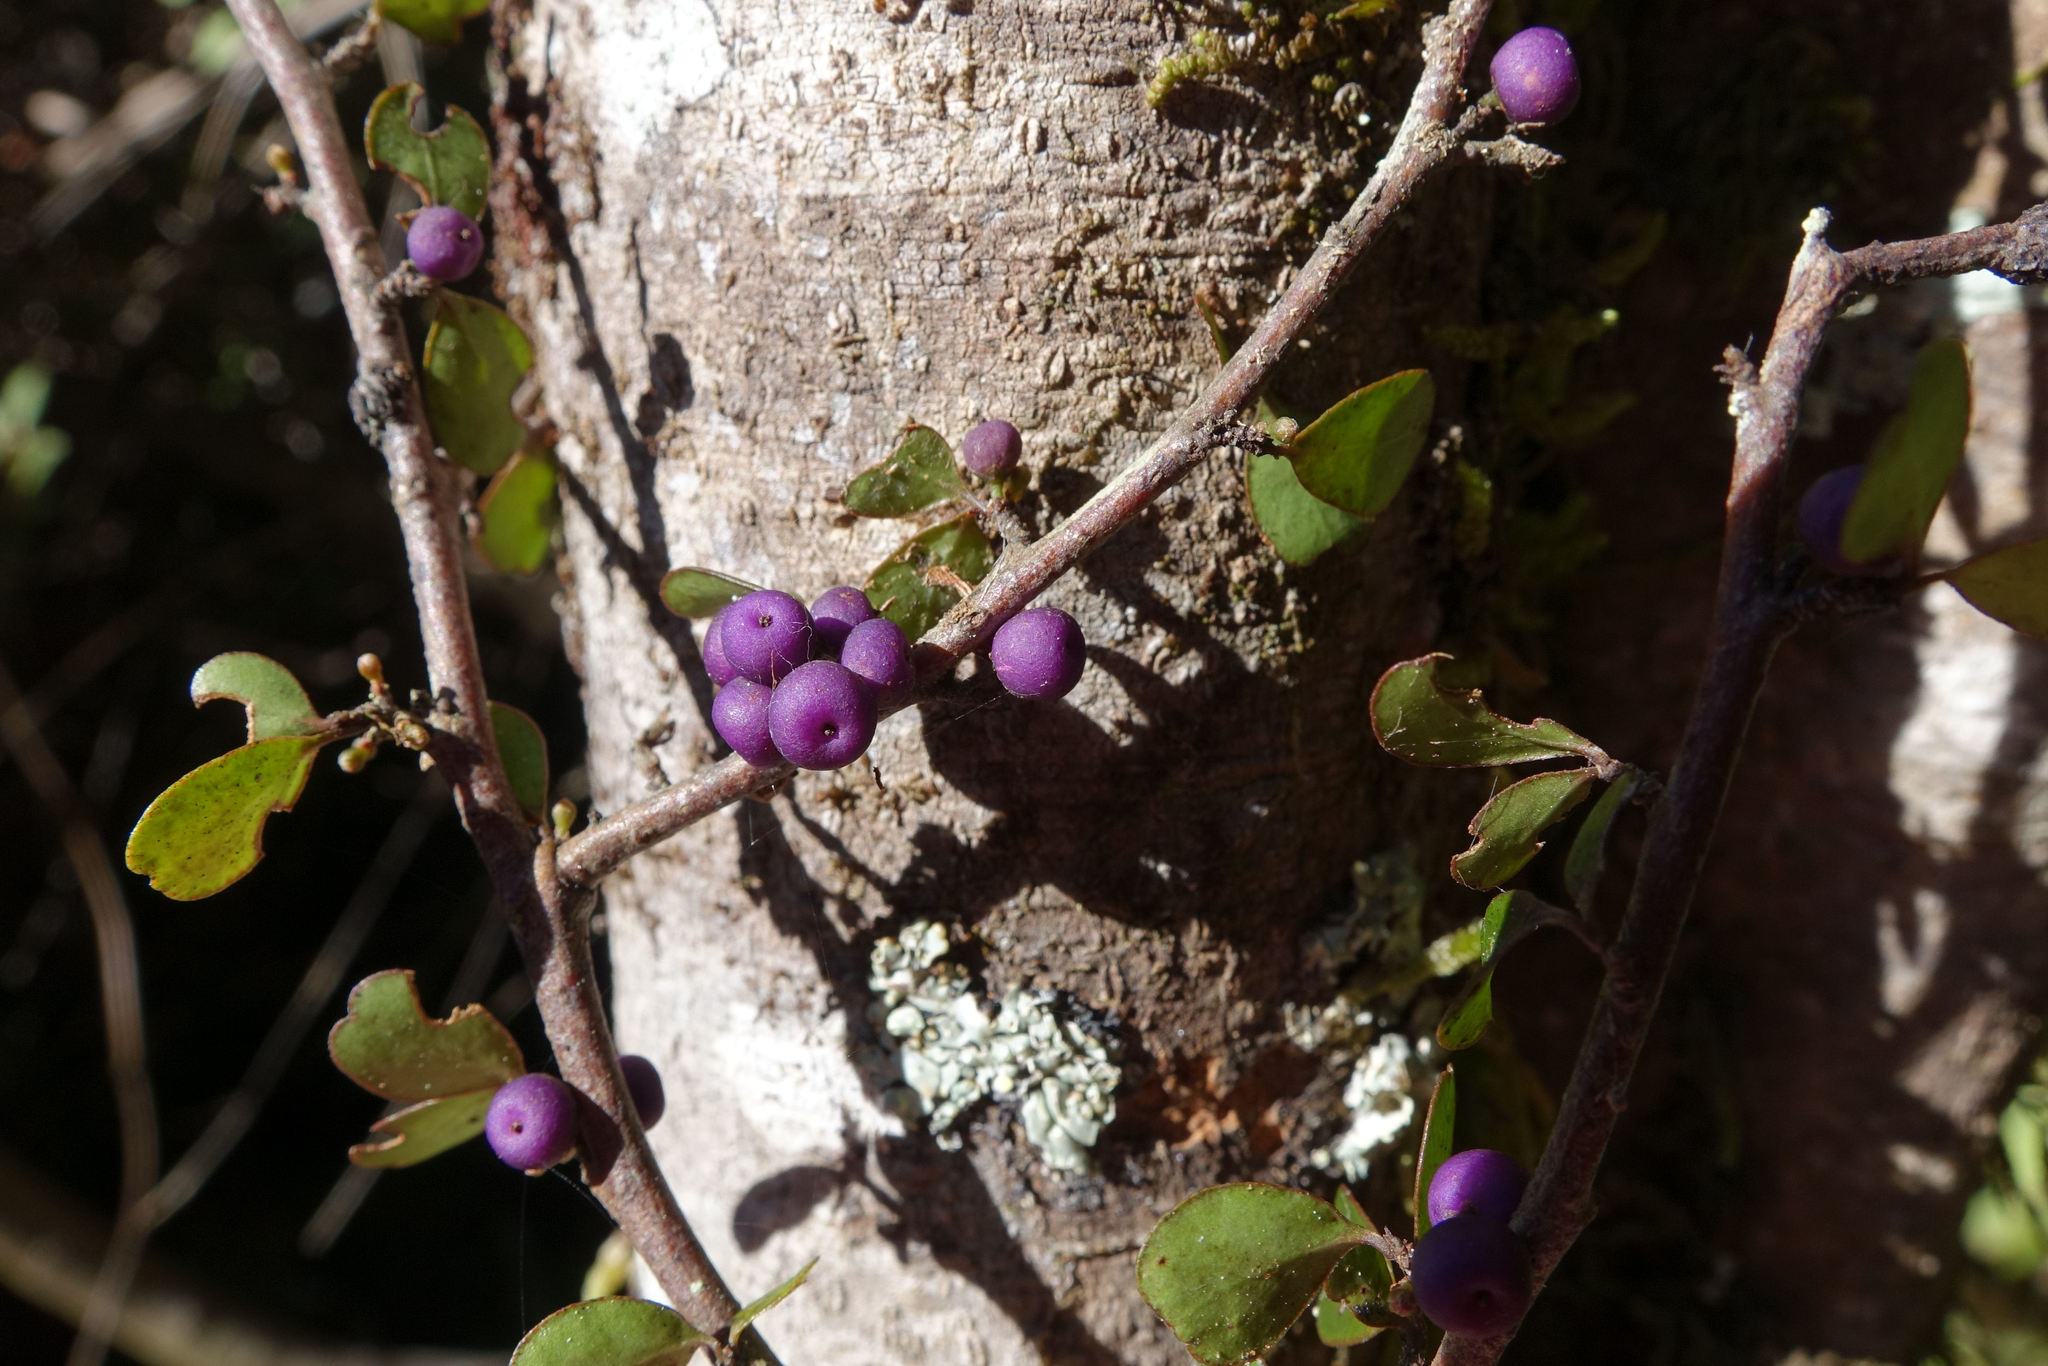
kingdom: Plantae
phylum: Tracheophyta
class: Magnoliopsida
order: Ericales
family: Primulaceae
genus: Myrsine
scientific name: Myrsine divaricata
